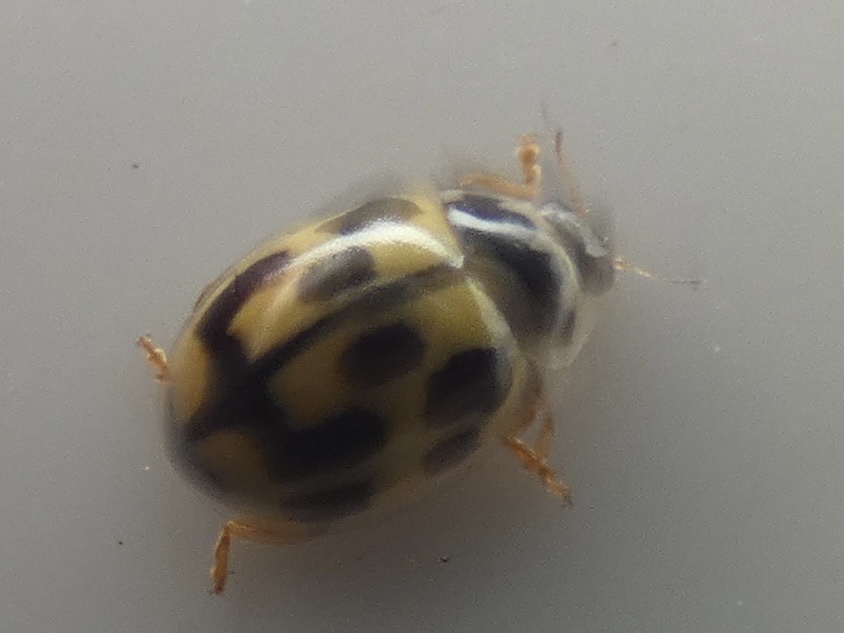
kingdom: Animalia
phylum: Arthropoda
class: Insecta
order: Coleoptera
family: Coccinellidae
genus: Propylaea
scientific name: Propylaea quatuordecimpunctata
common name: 14-spotted ladybird beetle
